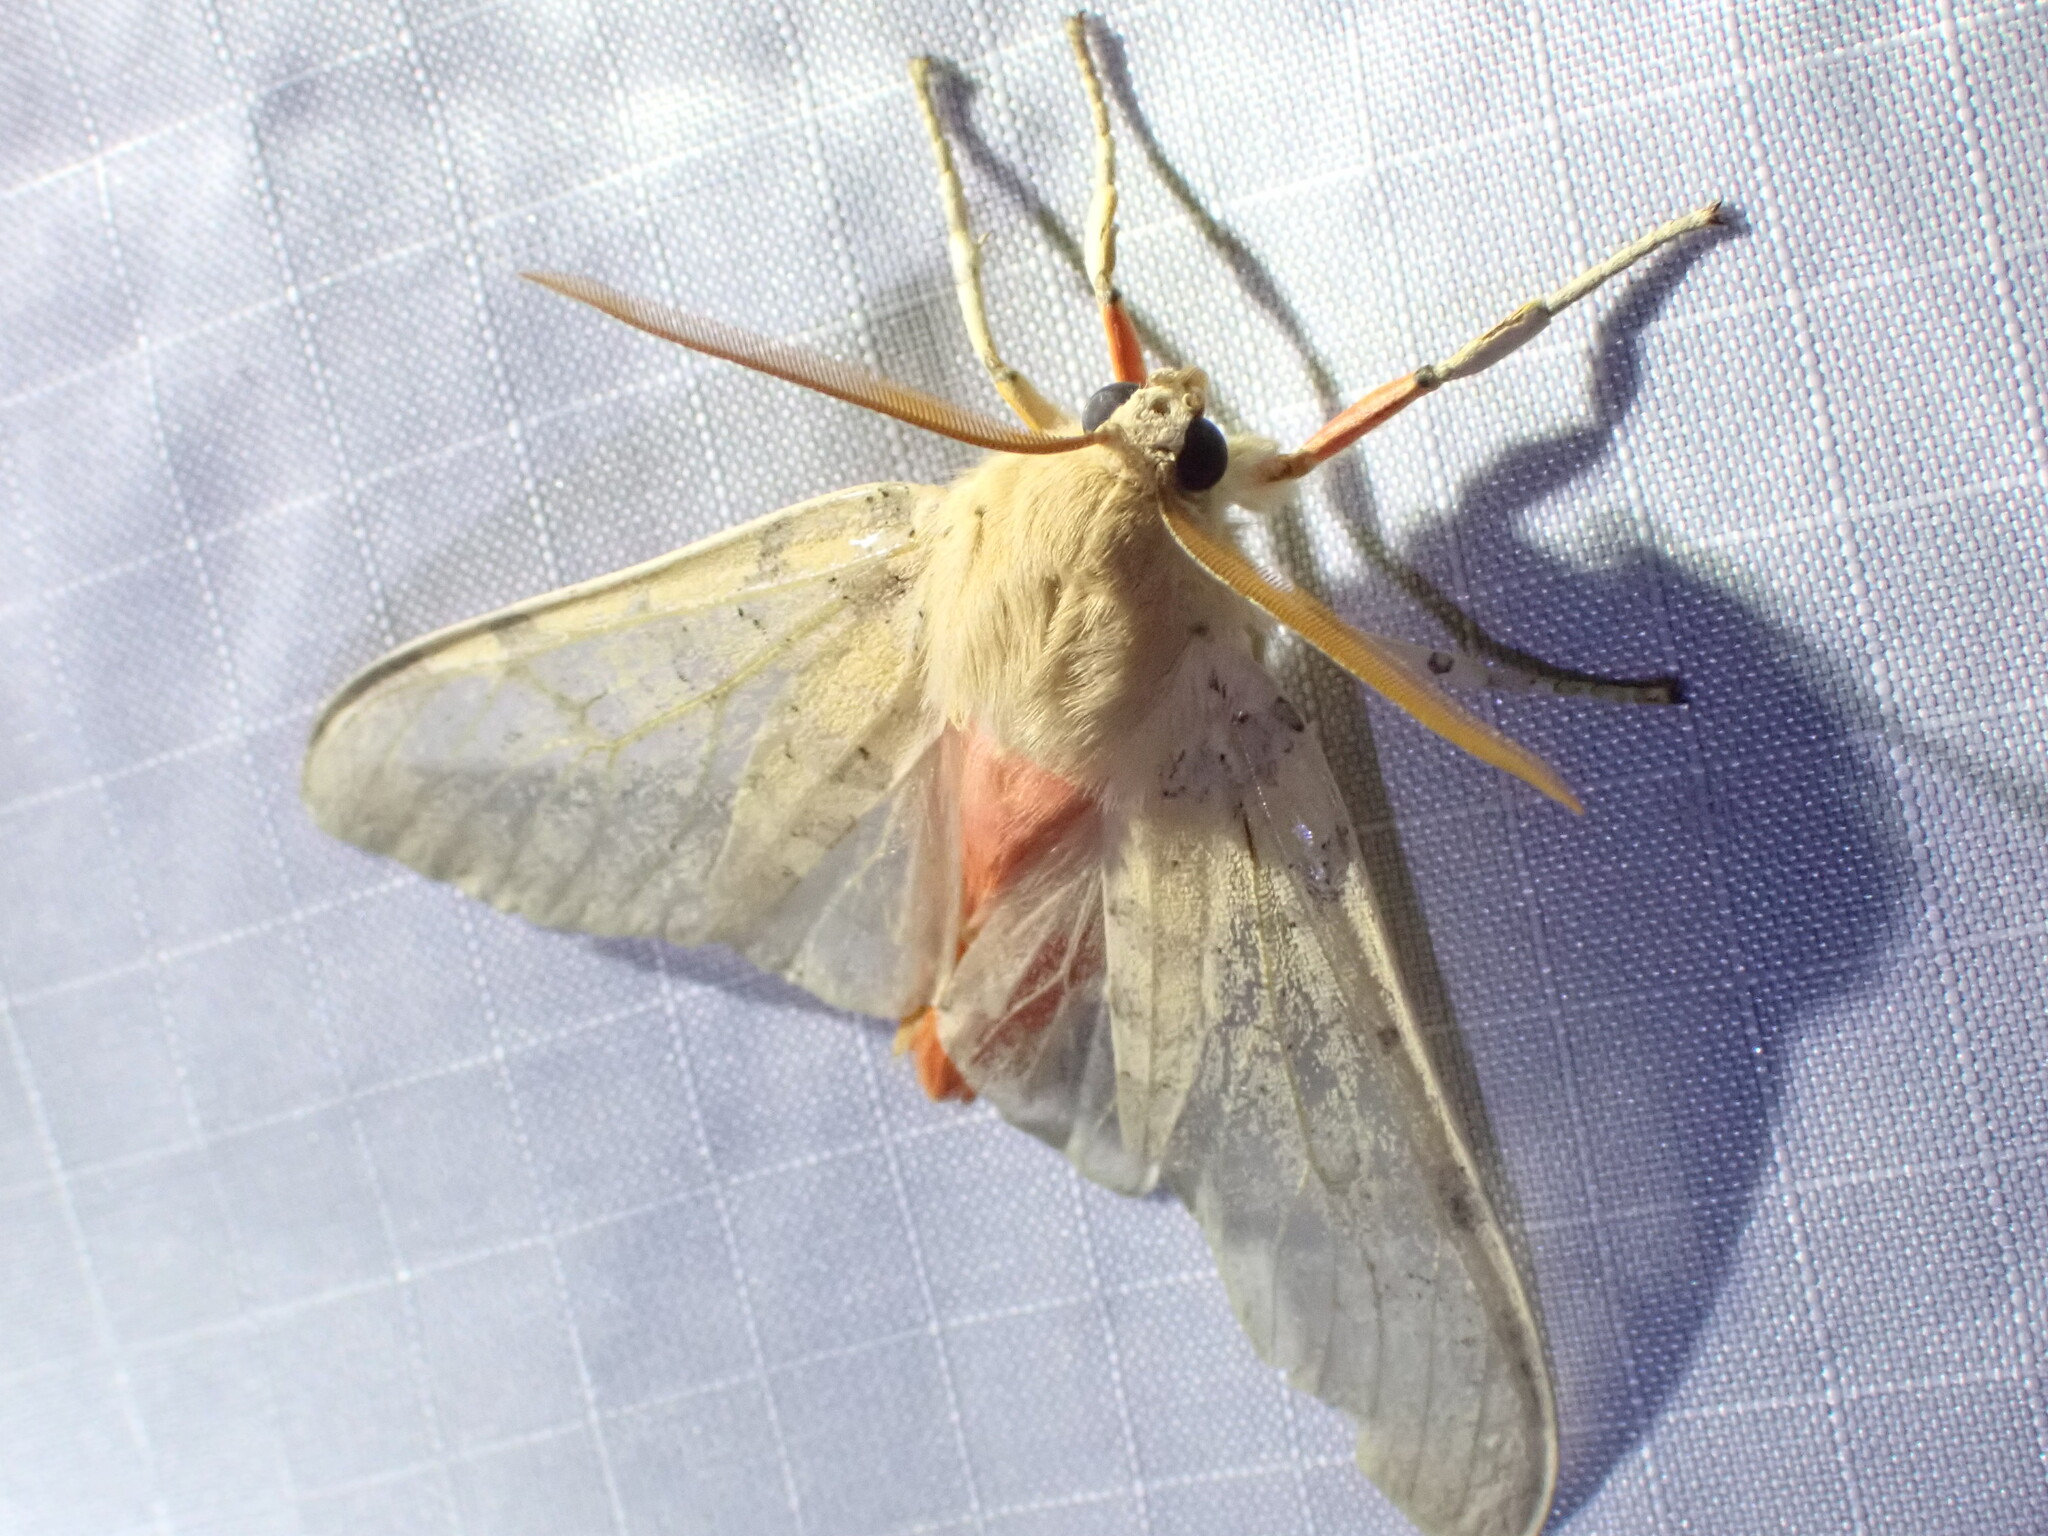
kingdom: Animalia
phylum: Arthropoda
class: Insecta
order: Lepidoptera
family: Erebidae
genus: Hemihyalea
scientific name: Hemihyalea edwardsii
